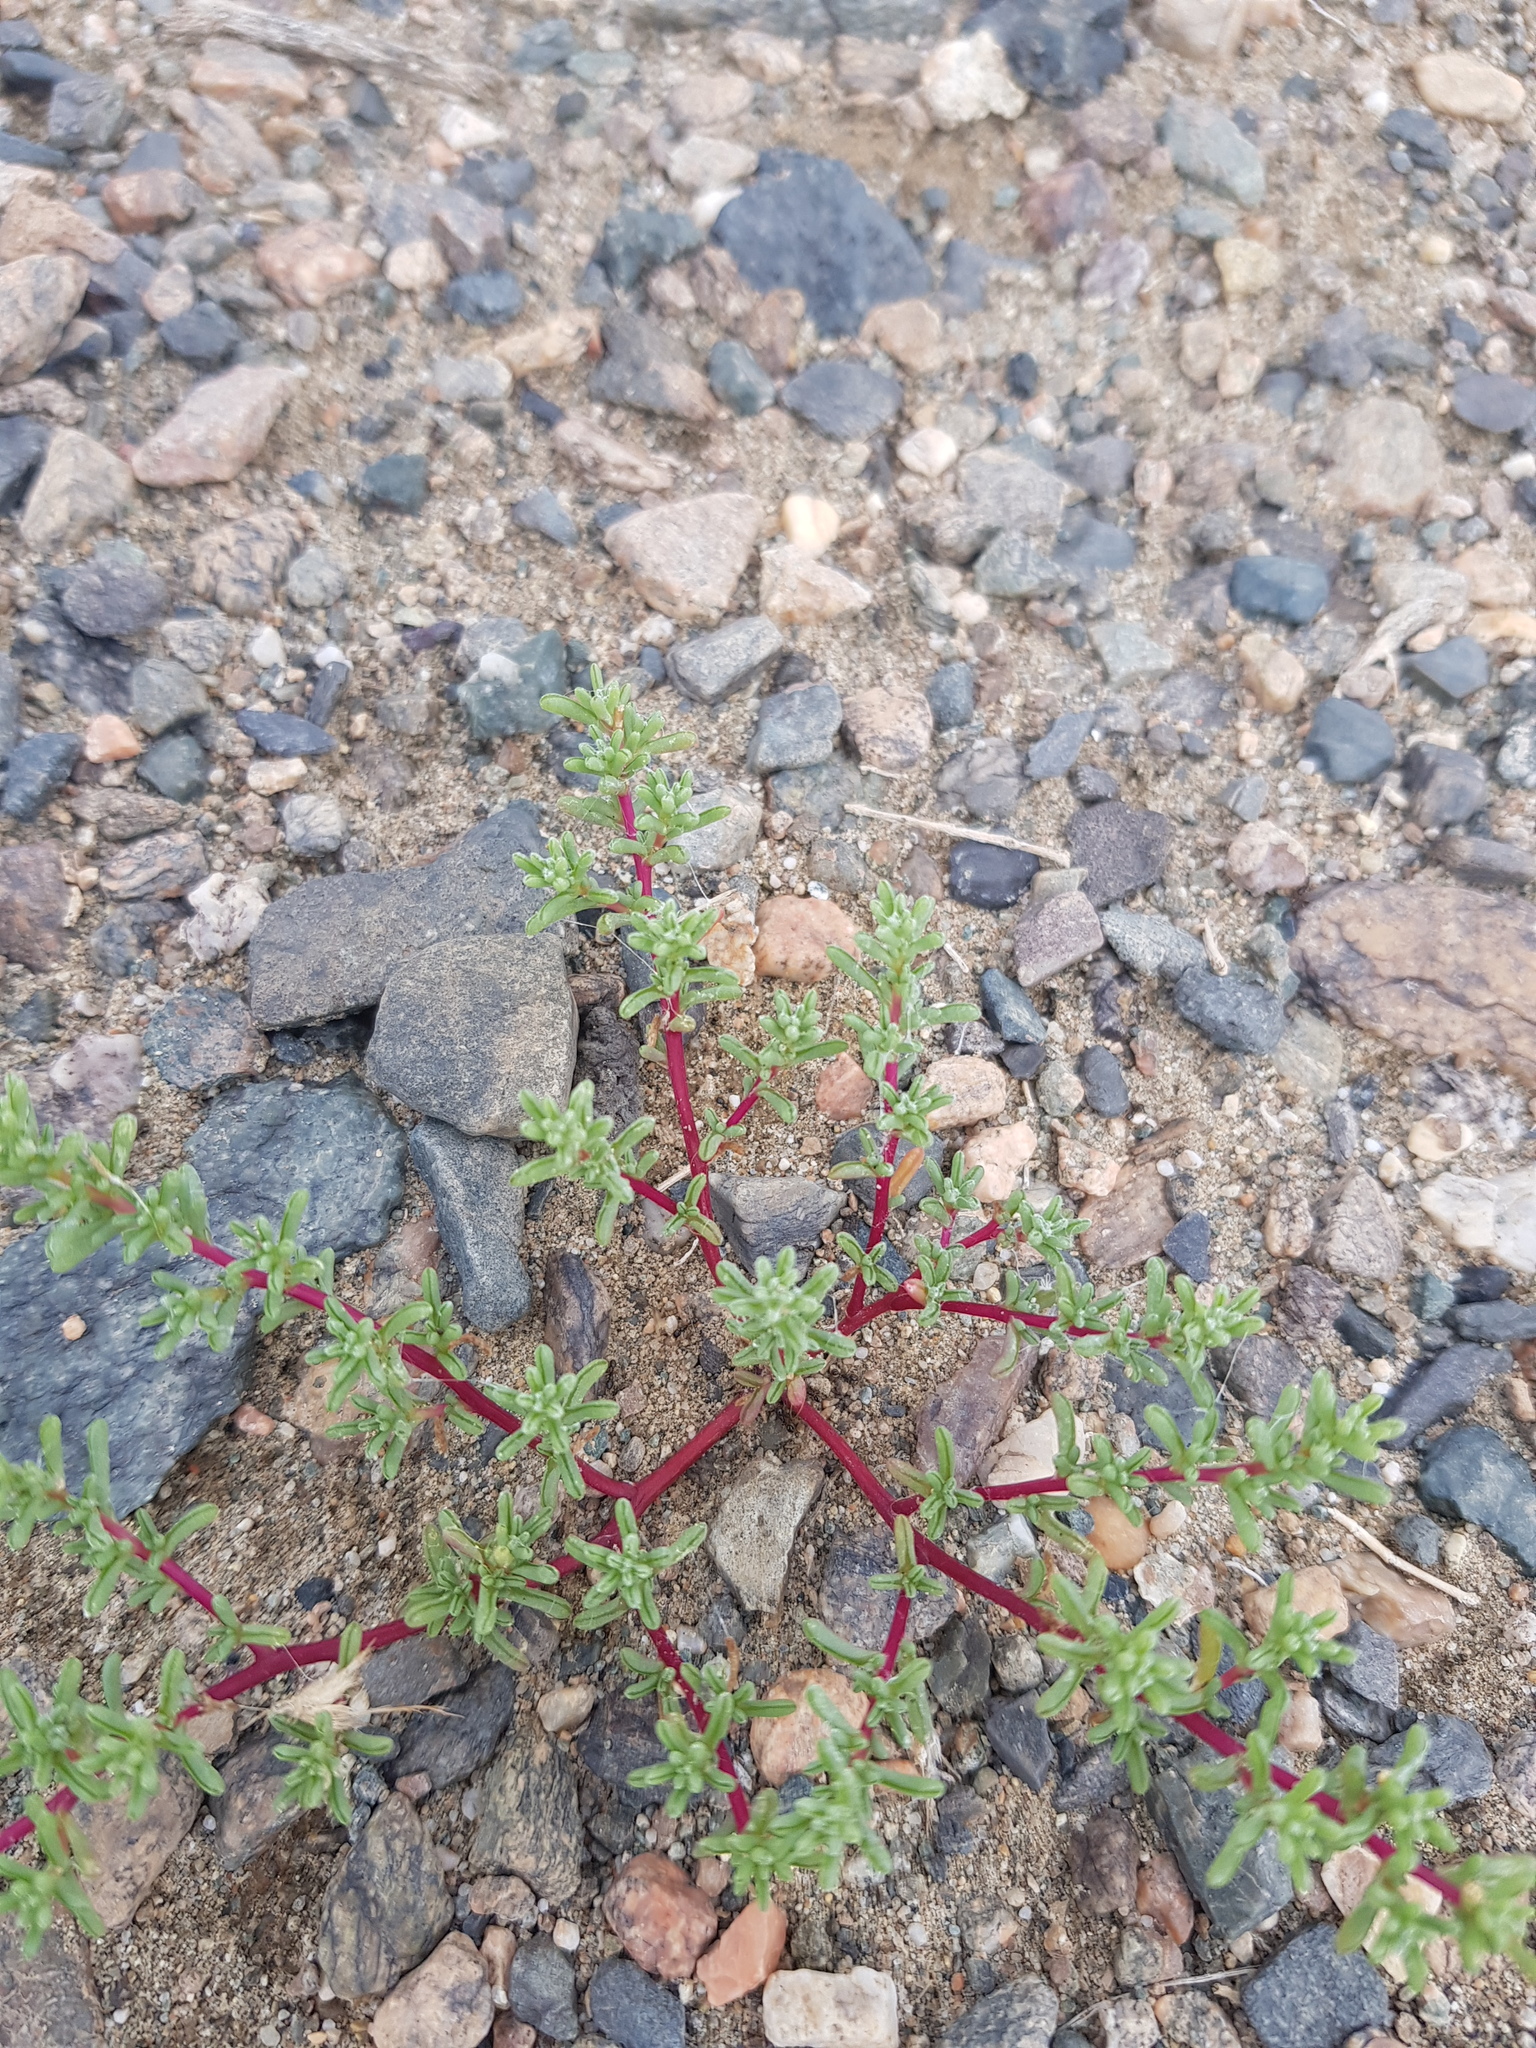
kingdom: Plantae
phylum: Tracheophyta
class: Magnoliopsida
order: Caryophyllales
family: Amaranthaceae
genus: Halogeton
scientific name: Halogeton arachnoides
